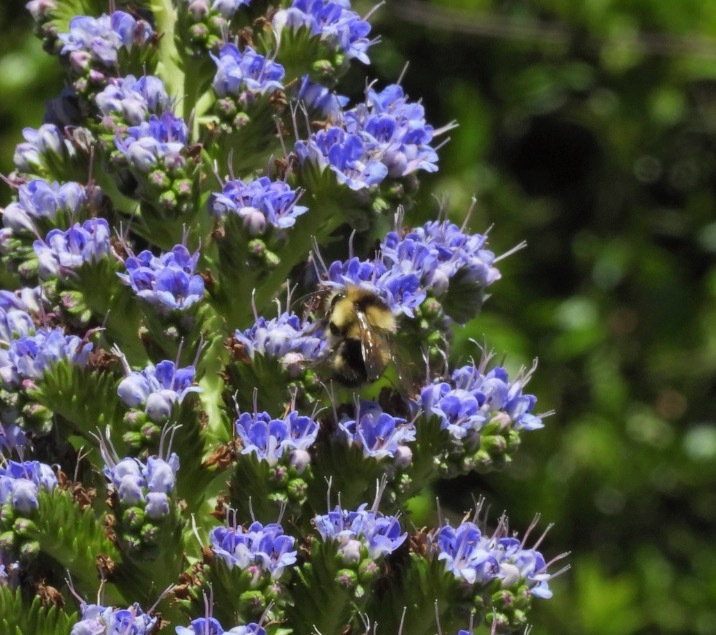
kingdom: Animalia
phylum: Arthropoda
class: Insecta
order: Hymenoptera
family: Apidae
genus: Bombus
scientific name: Bombus melanopygus
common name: Black tail bumble bee
